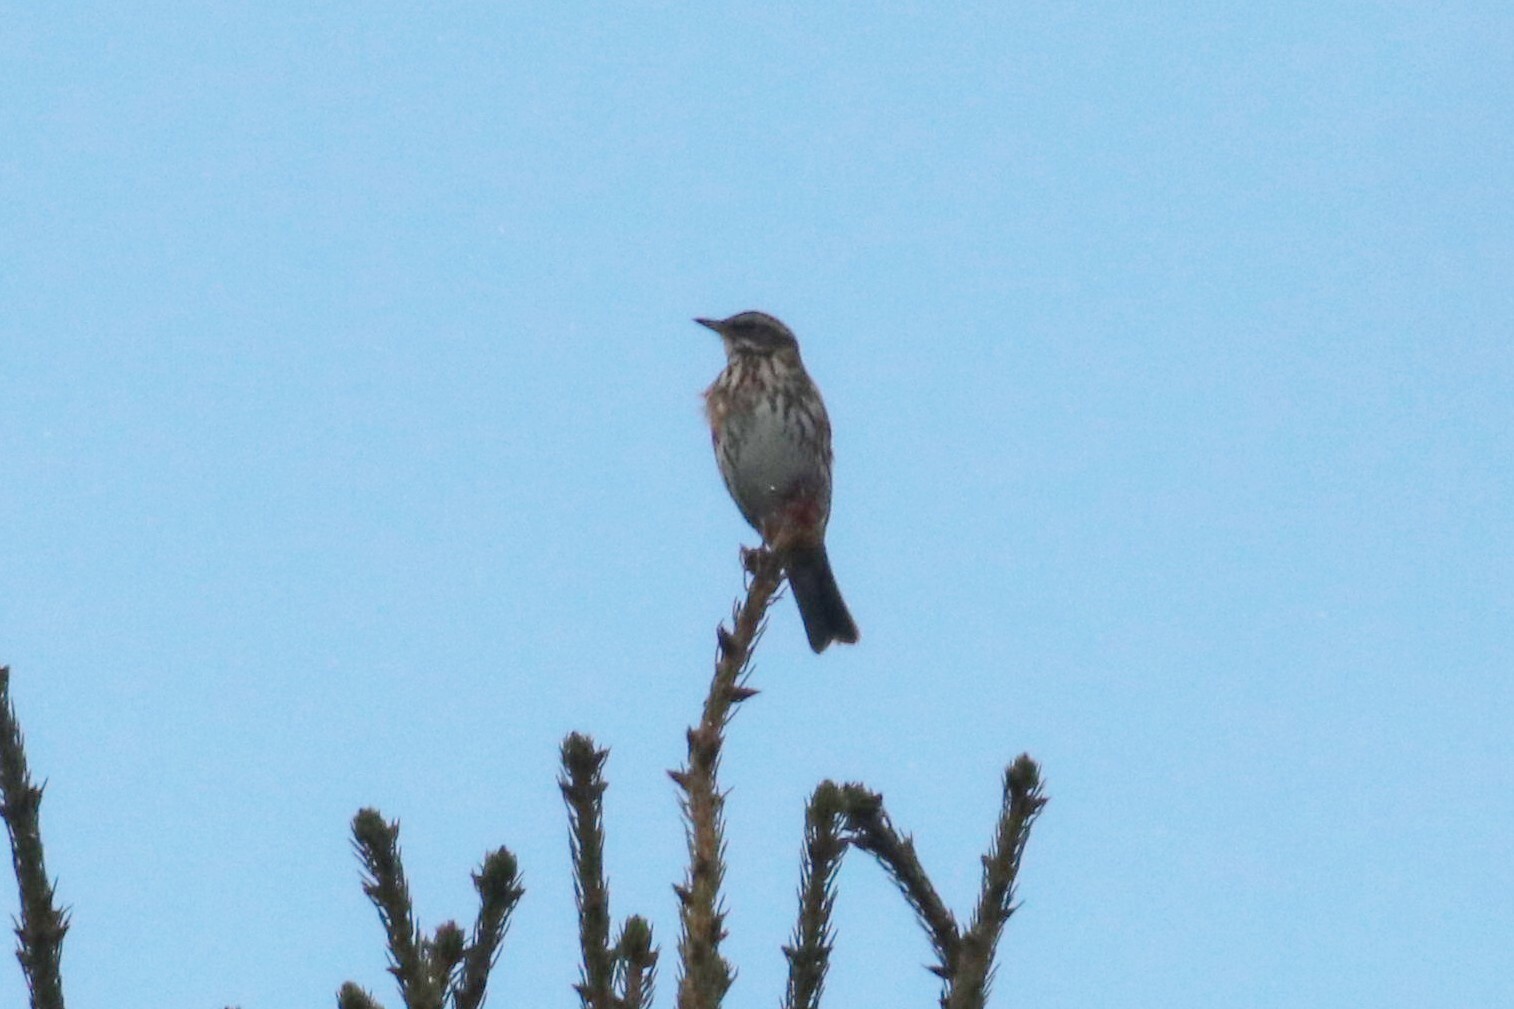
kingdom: Animalia
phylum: Chordata
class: Aves
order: Passeriformes
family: Turdidae
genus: Turdus
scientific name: Turdus iliacus
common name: Redwing
